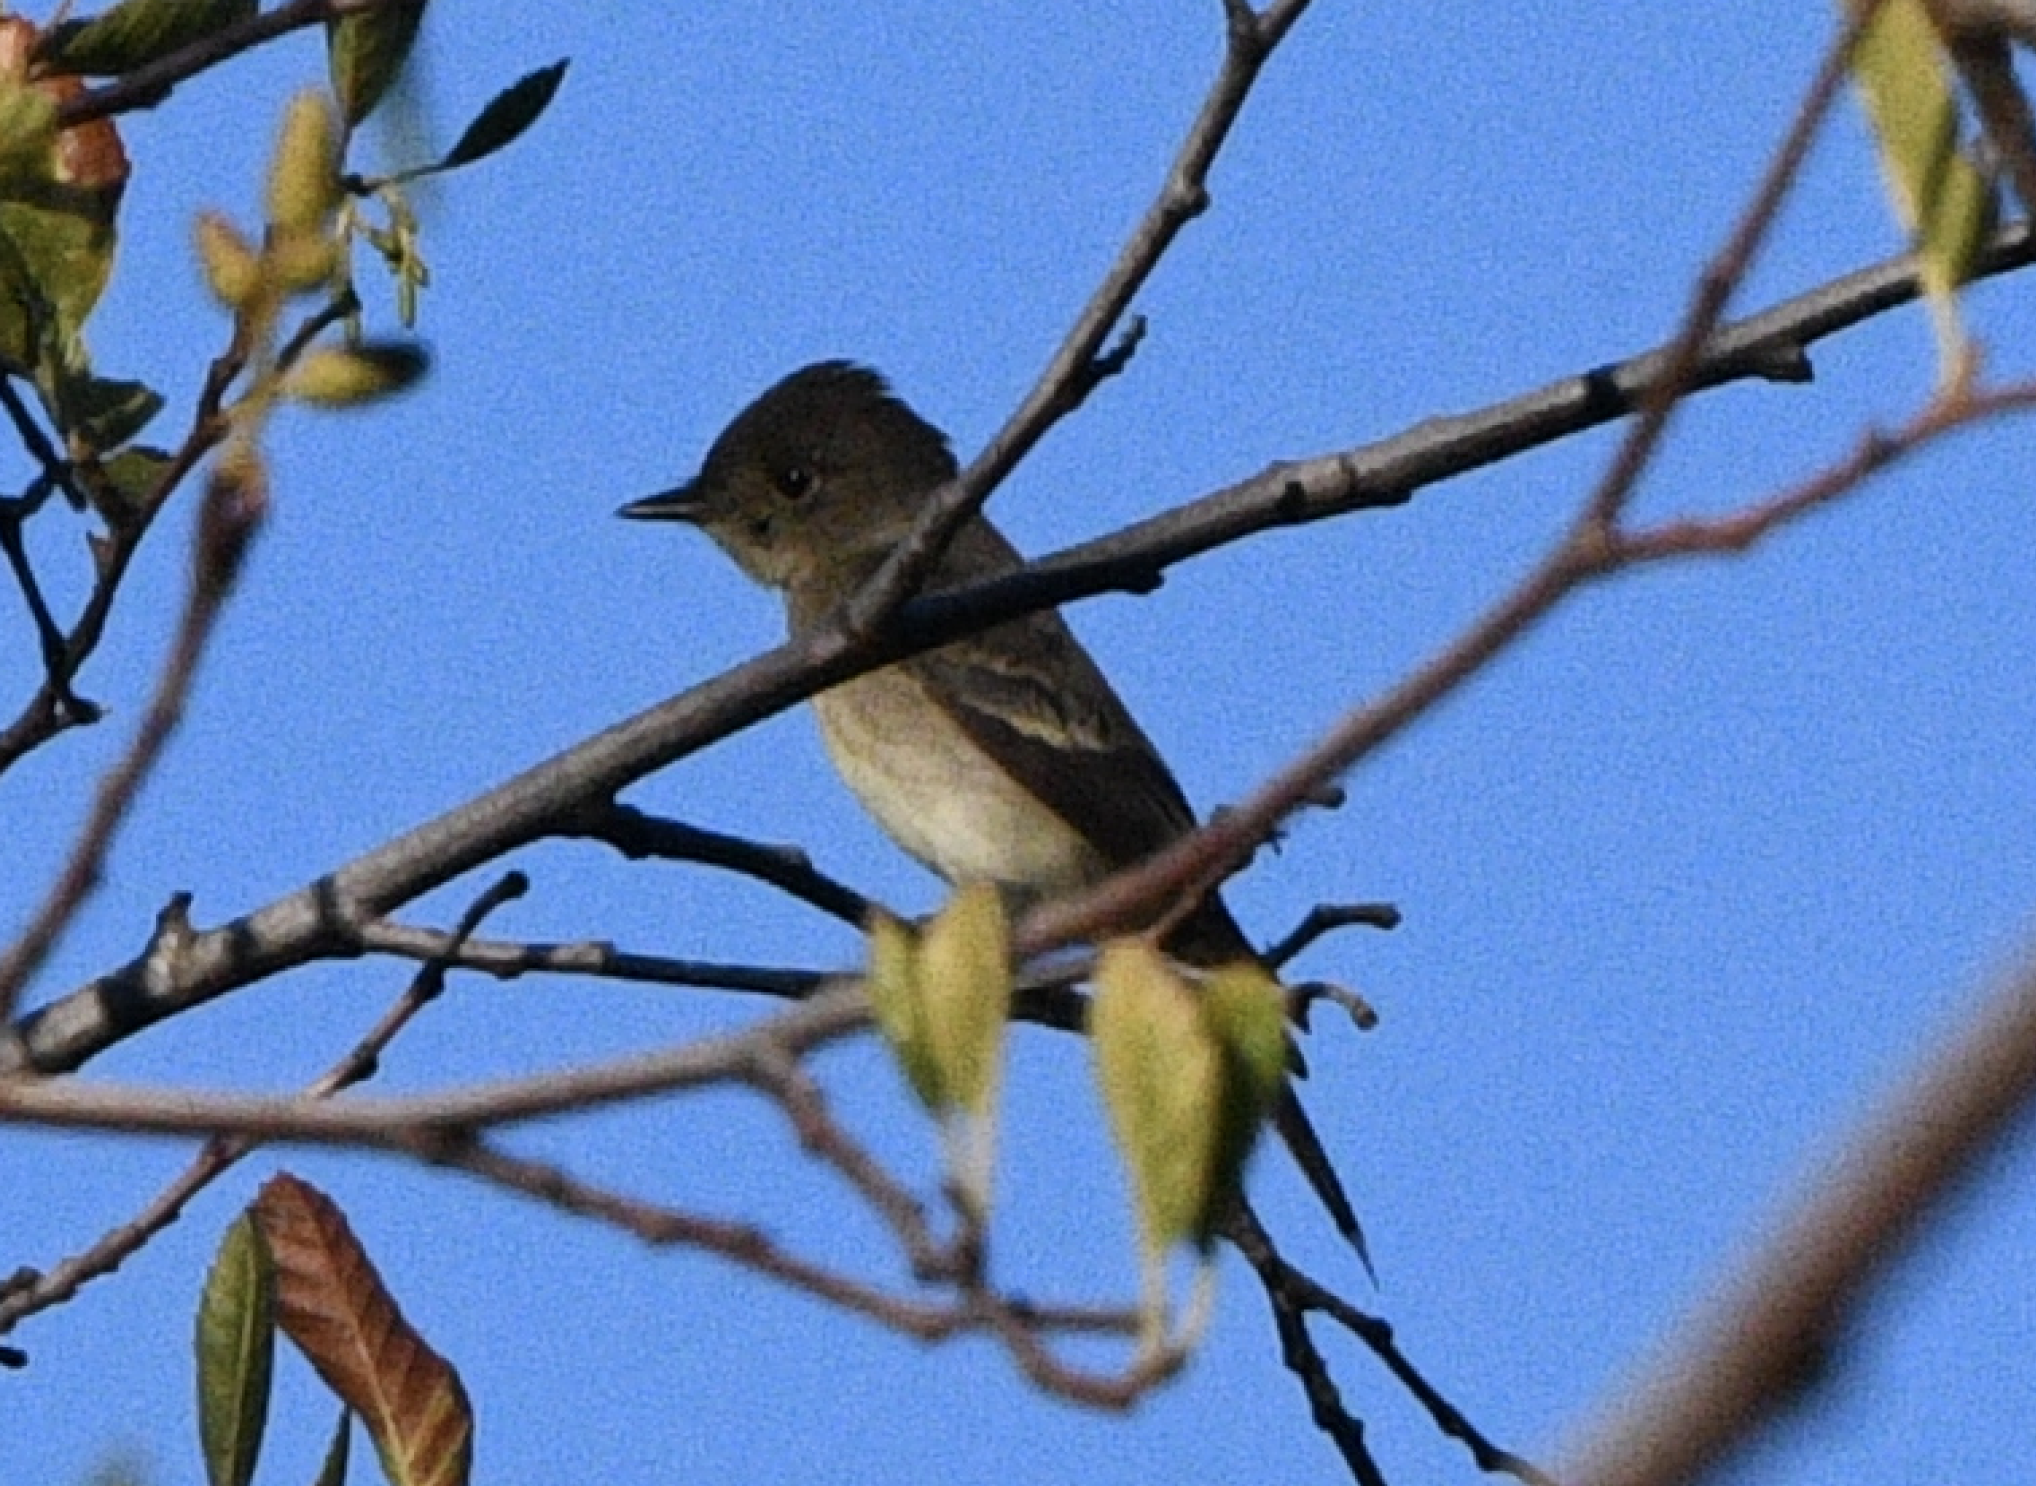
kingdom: Animalia
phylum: Chordata
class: Aves
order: Passeriformes
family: Tyrannidae
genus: Contopus
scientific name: Contopus sordidulus
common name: Western wood-pewee
